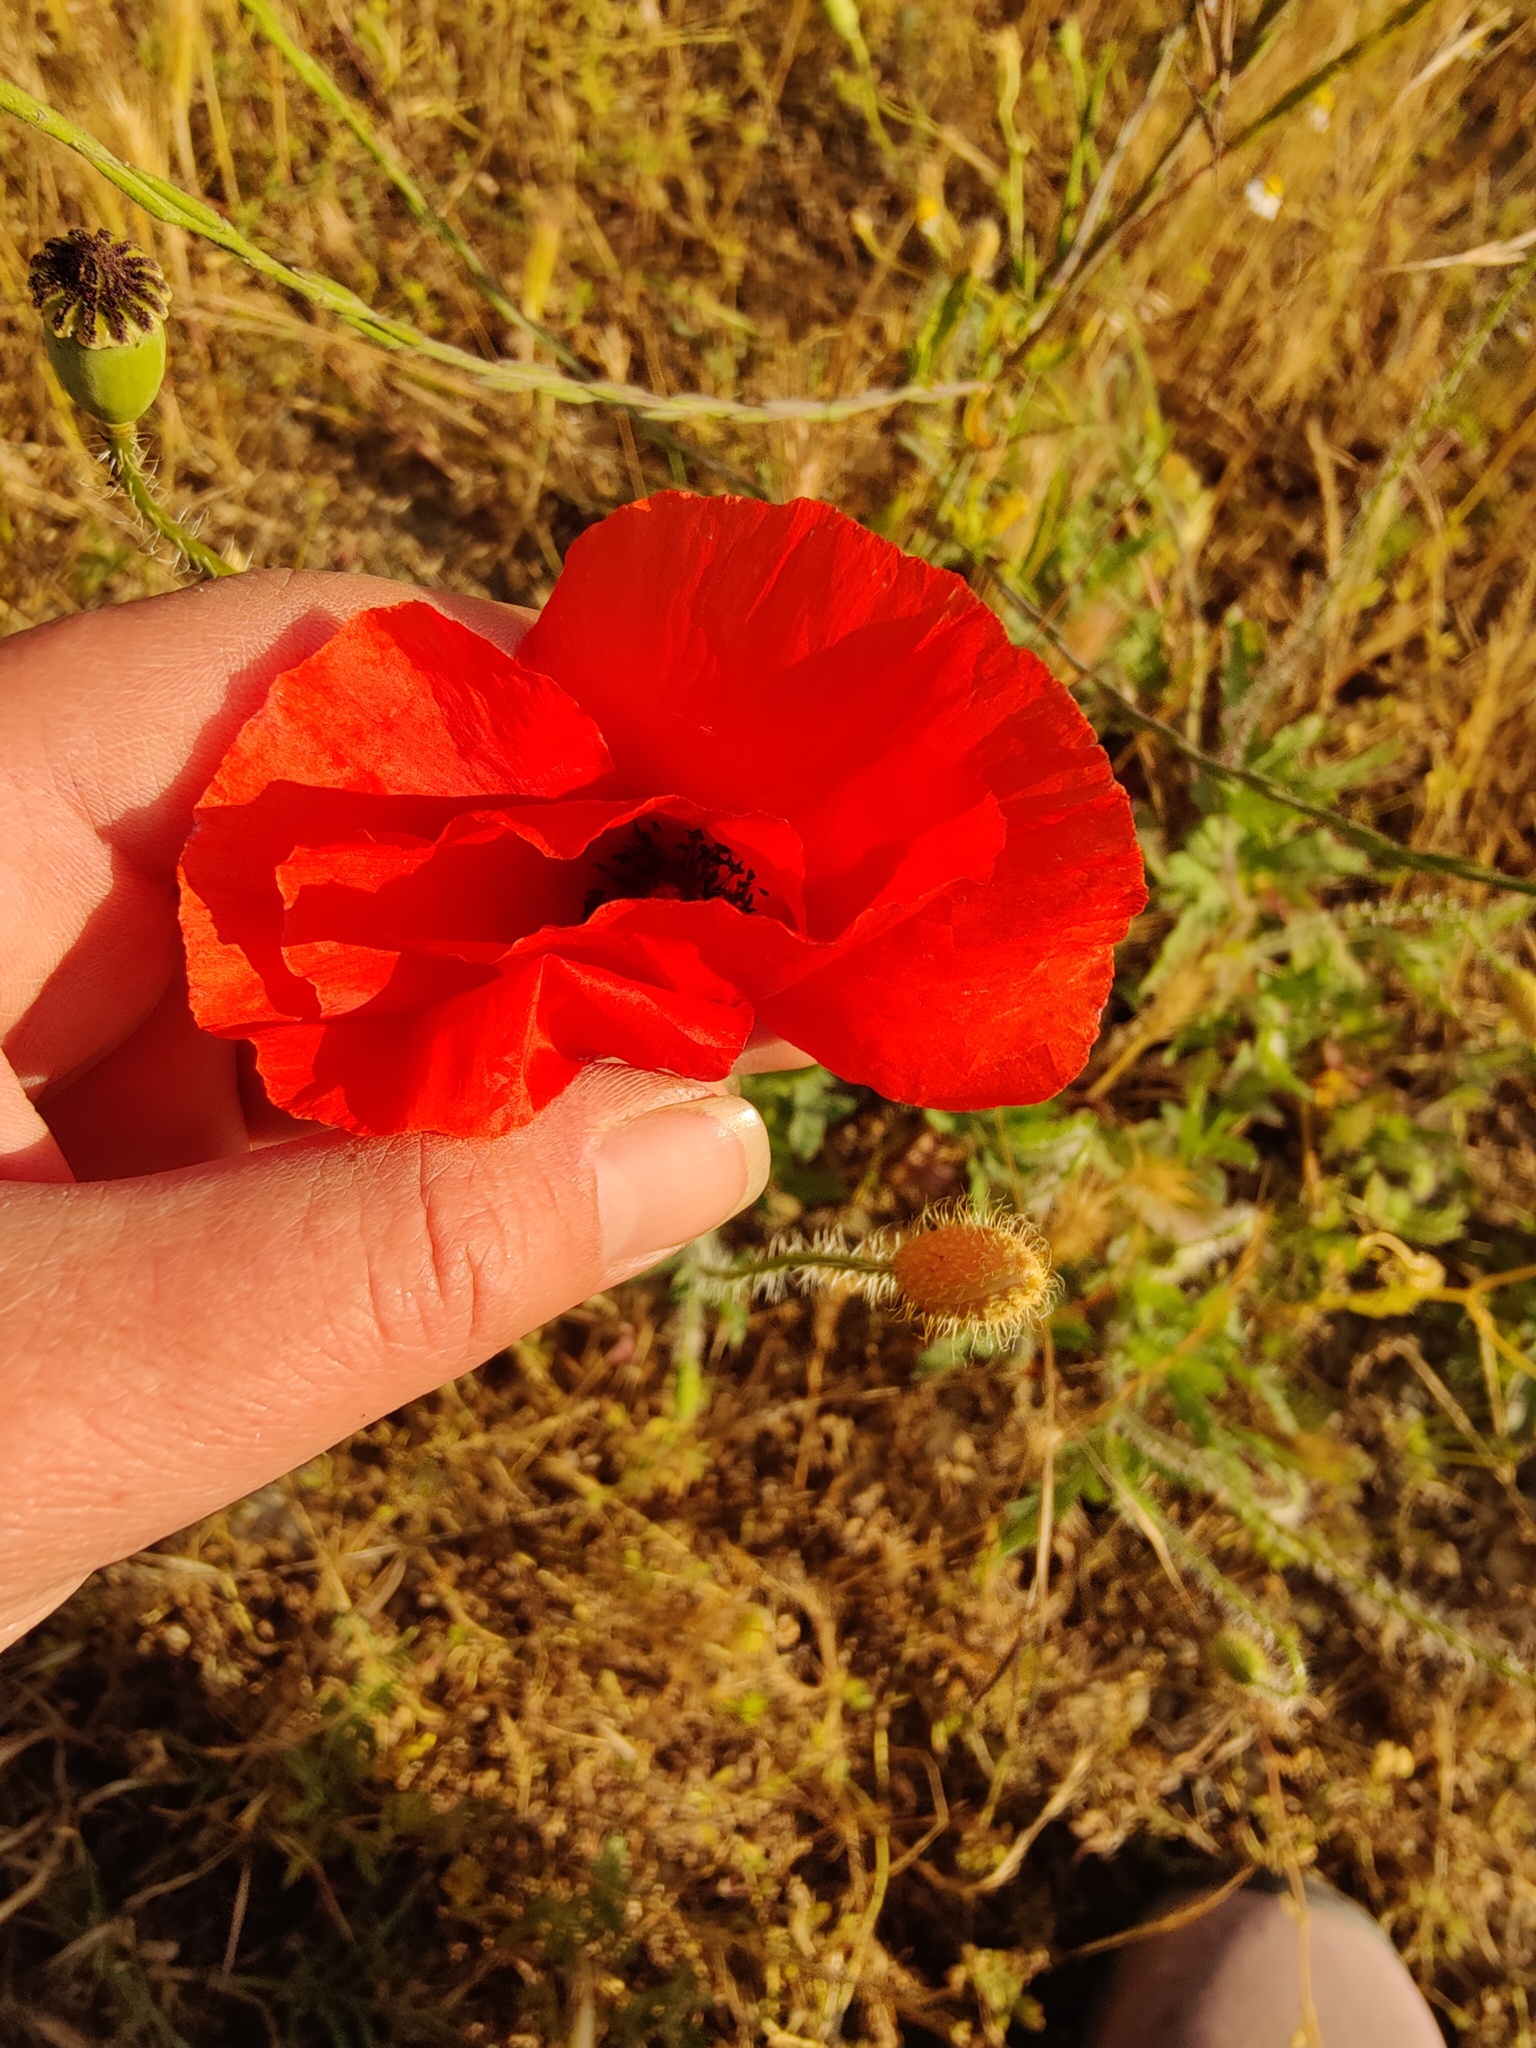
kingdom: Plantae
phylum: Tracheophyta
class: Magnoliopsida
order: Ranunculales
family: Papaveraceae
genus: Papaver
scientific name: Papaver rhoeas
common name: Corn poppy
